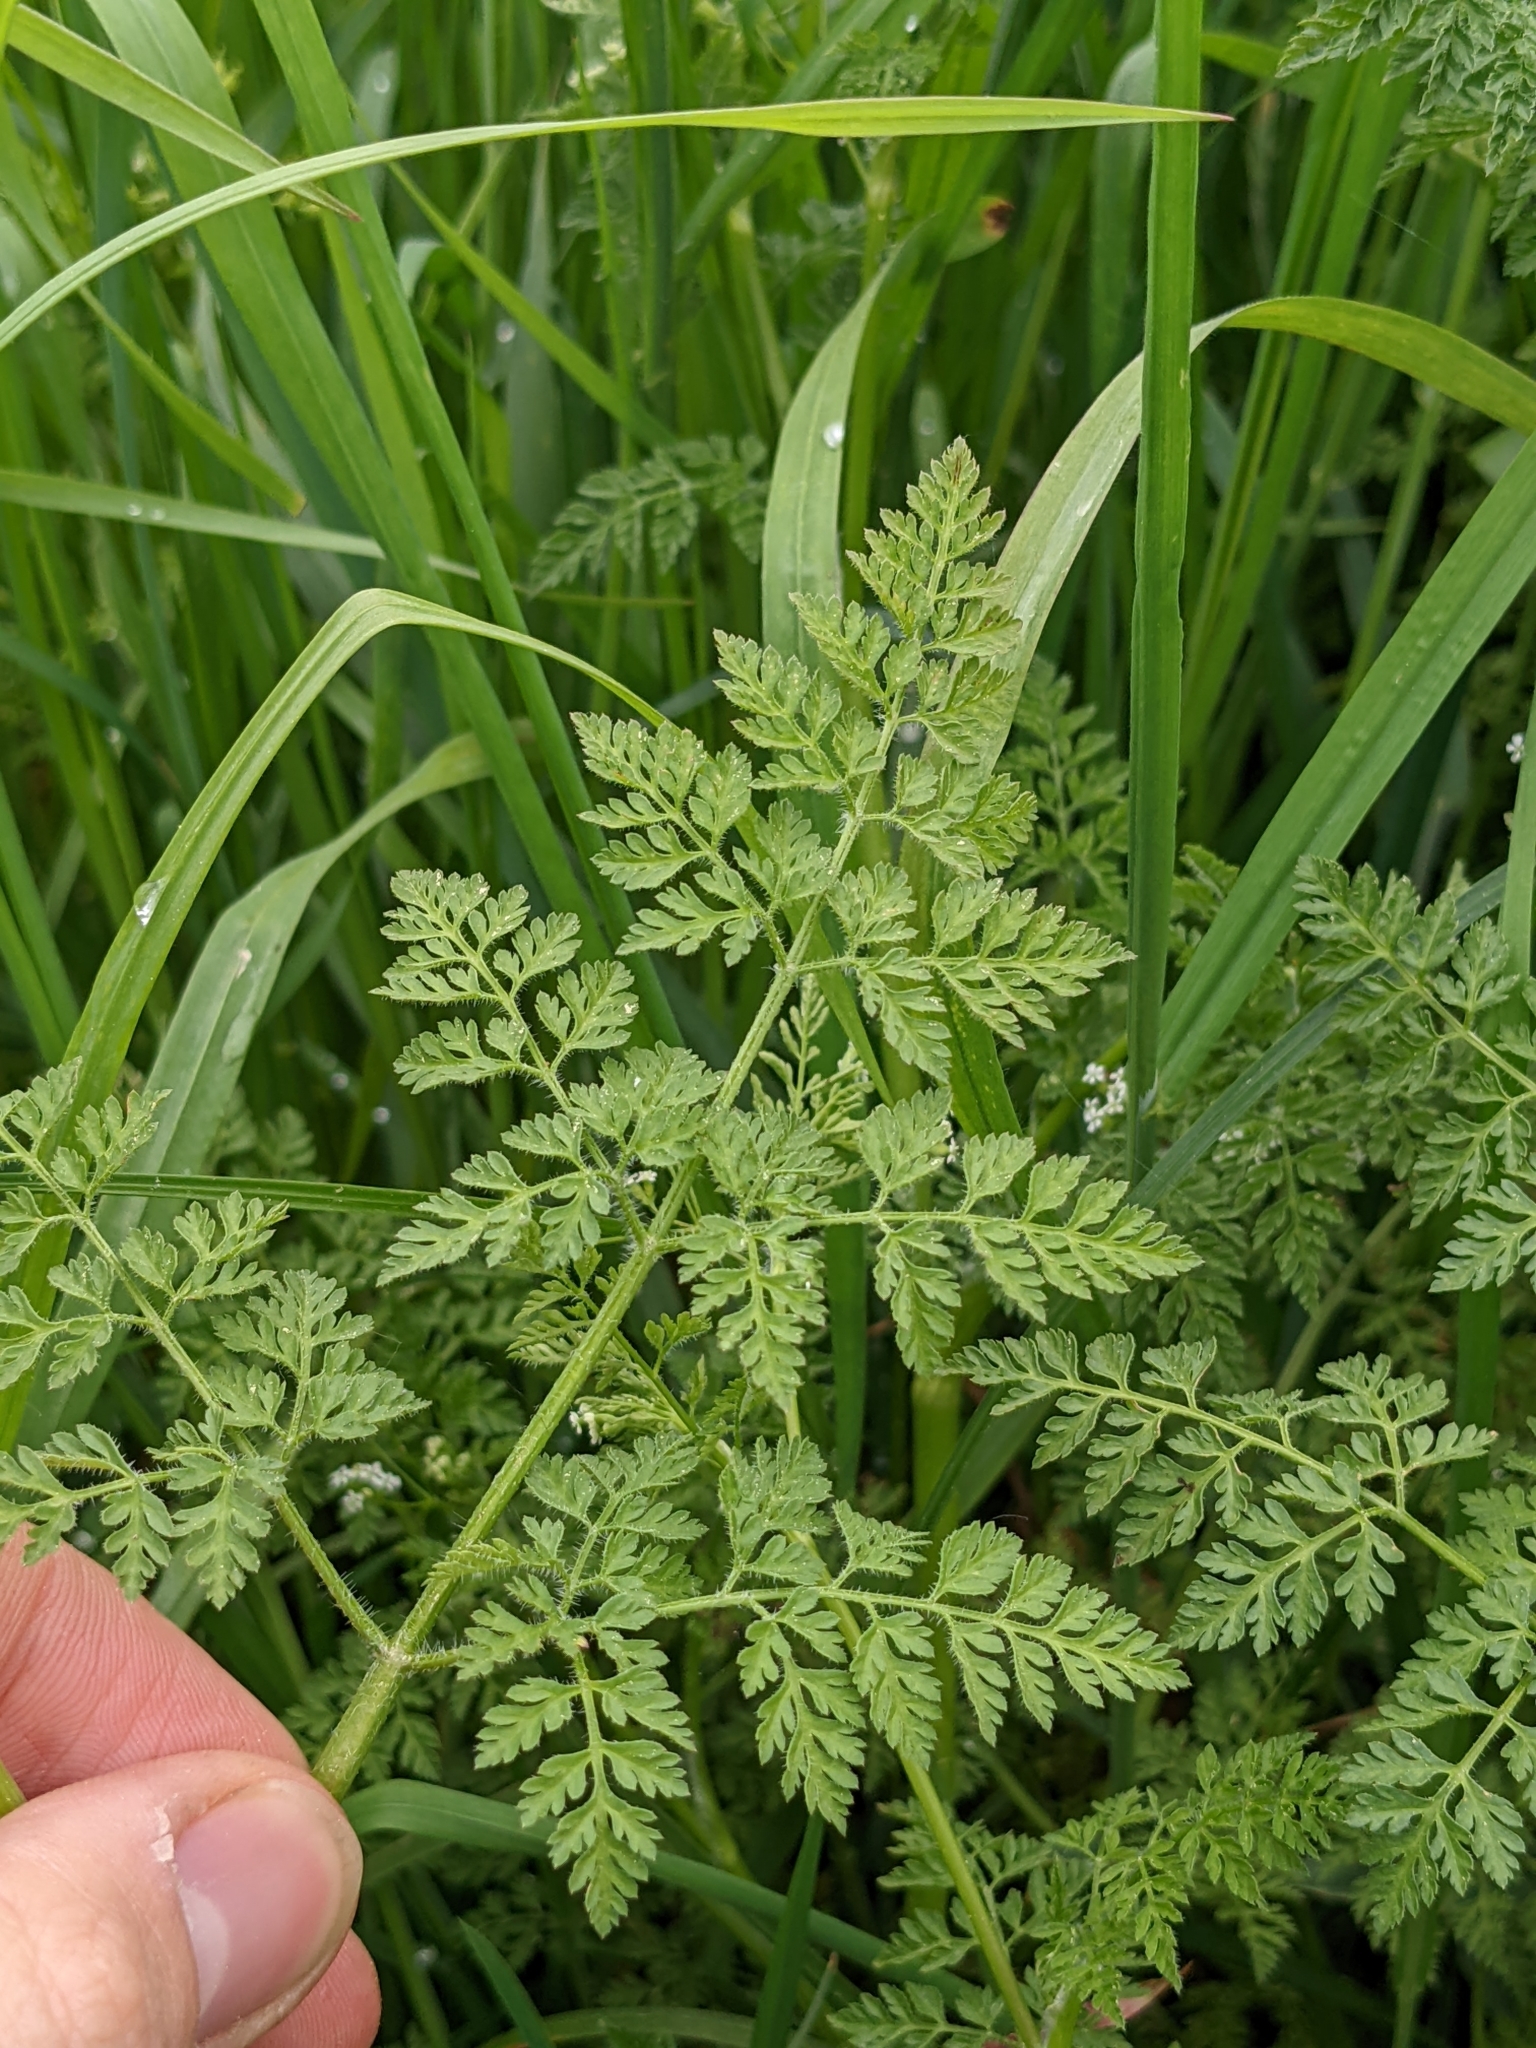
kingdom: Plantae
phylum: Tracheophyta
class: Magnoliopsida
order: Apiales
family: Apiaceae
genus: Anthriscus
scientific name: Anthriscus caucalis
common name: Bur chervil
